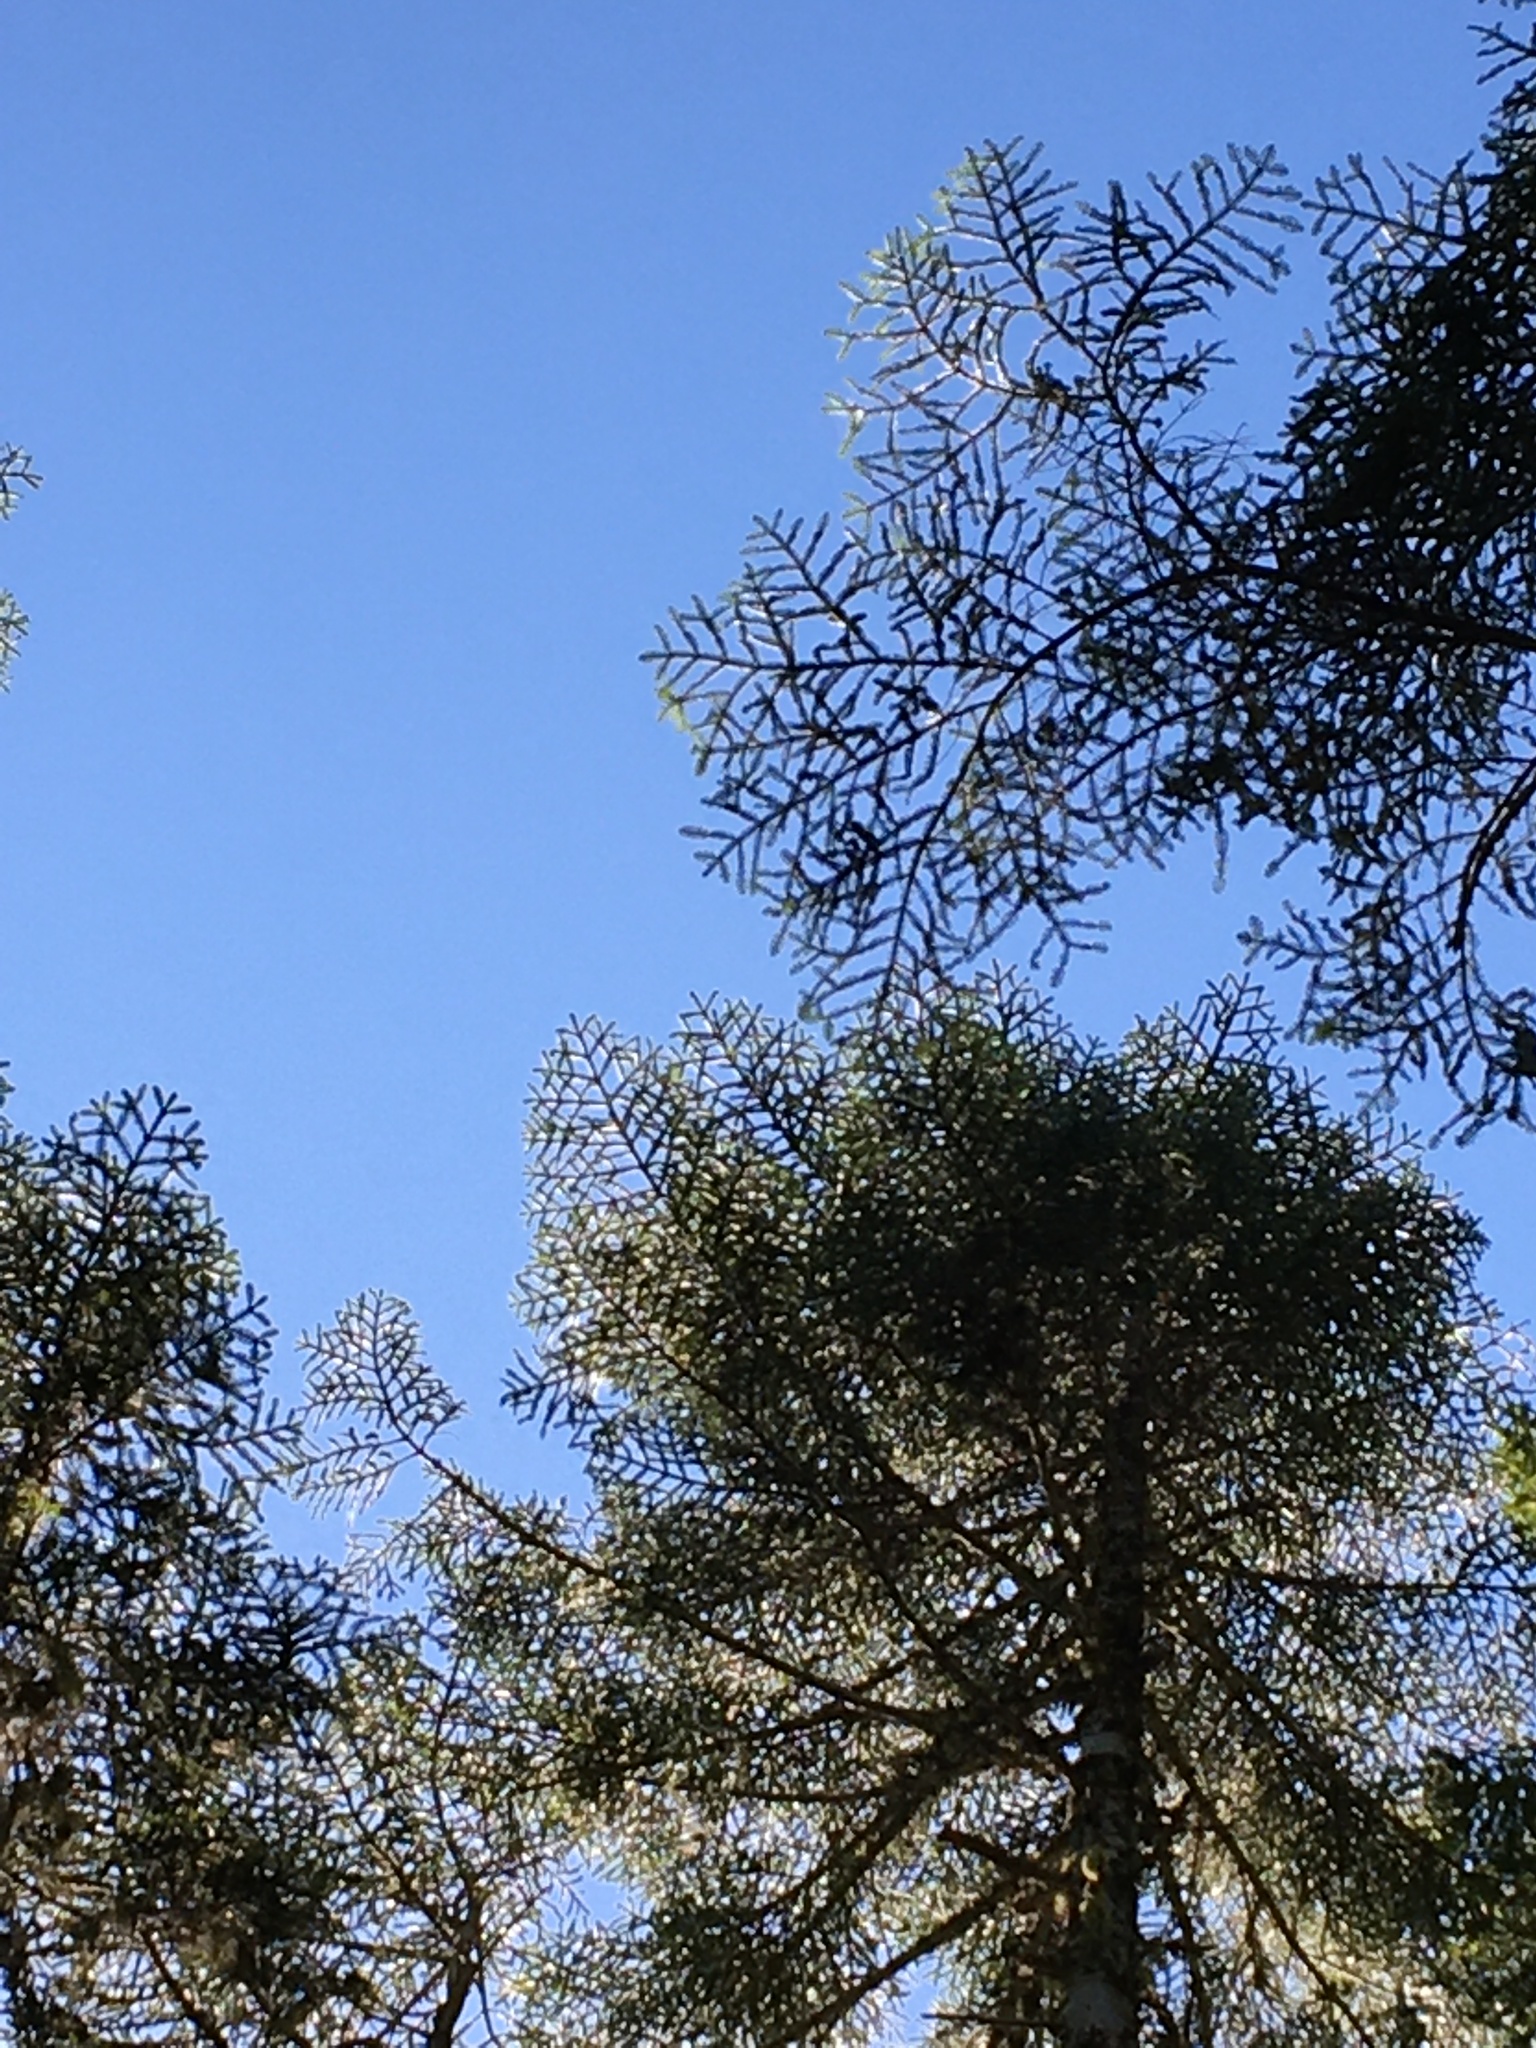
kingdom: Plantae
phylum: Tracheophyta
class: Pinopsida
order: Pinales
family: Pinaceae
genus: Abies
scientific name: Abies procera
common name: Noble fir
